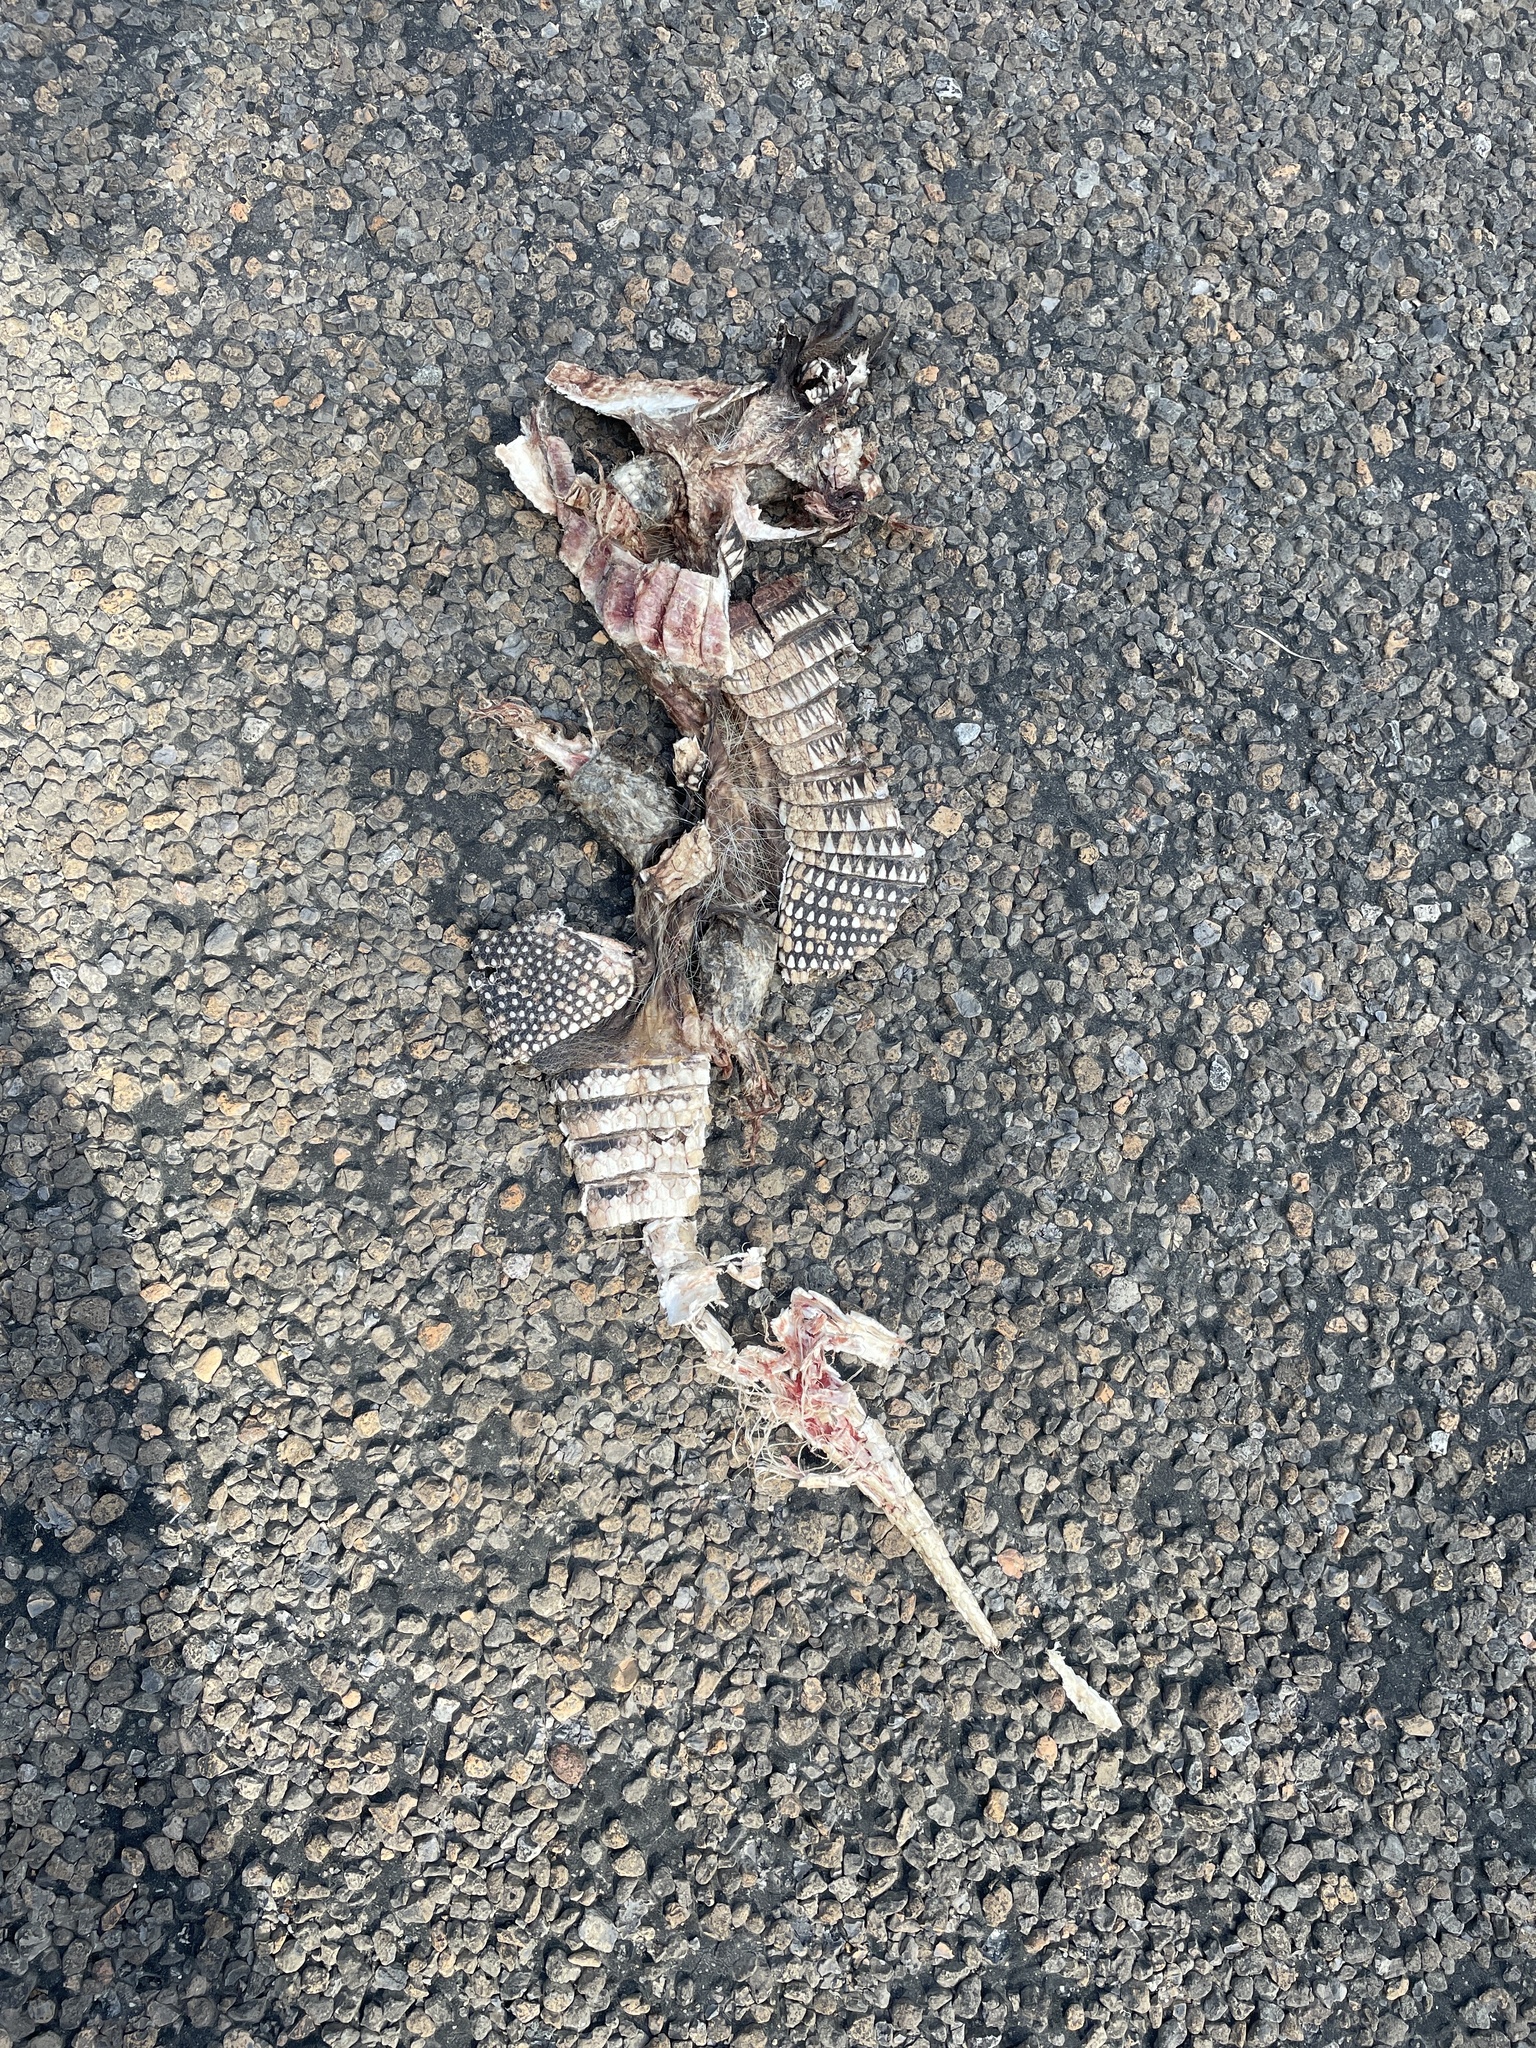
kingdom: Animalia
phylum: Chordata
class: Mammalia
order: Cingulata
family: Dasypodidae
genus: Dasypus
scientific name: Dasypus novemcinctus
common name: Nine-banded armadillo
